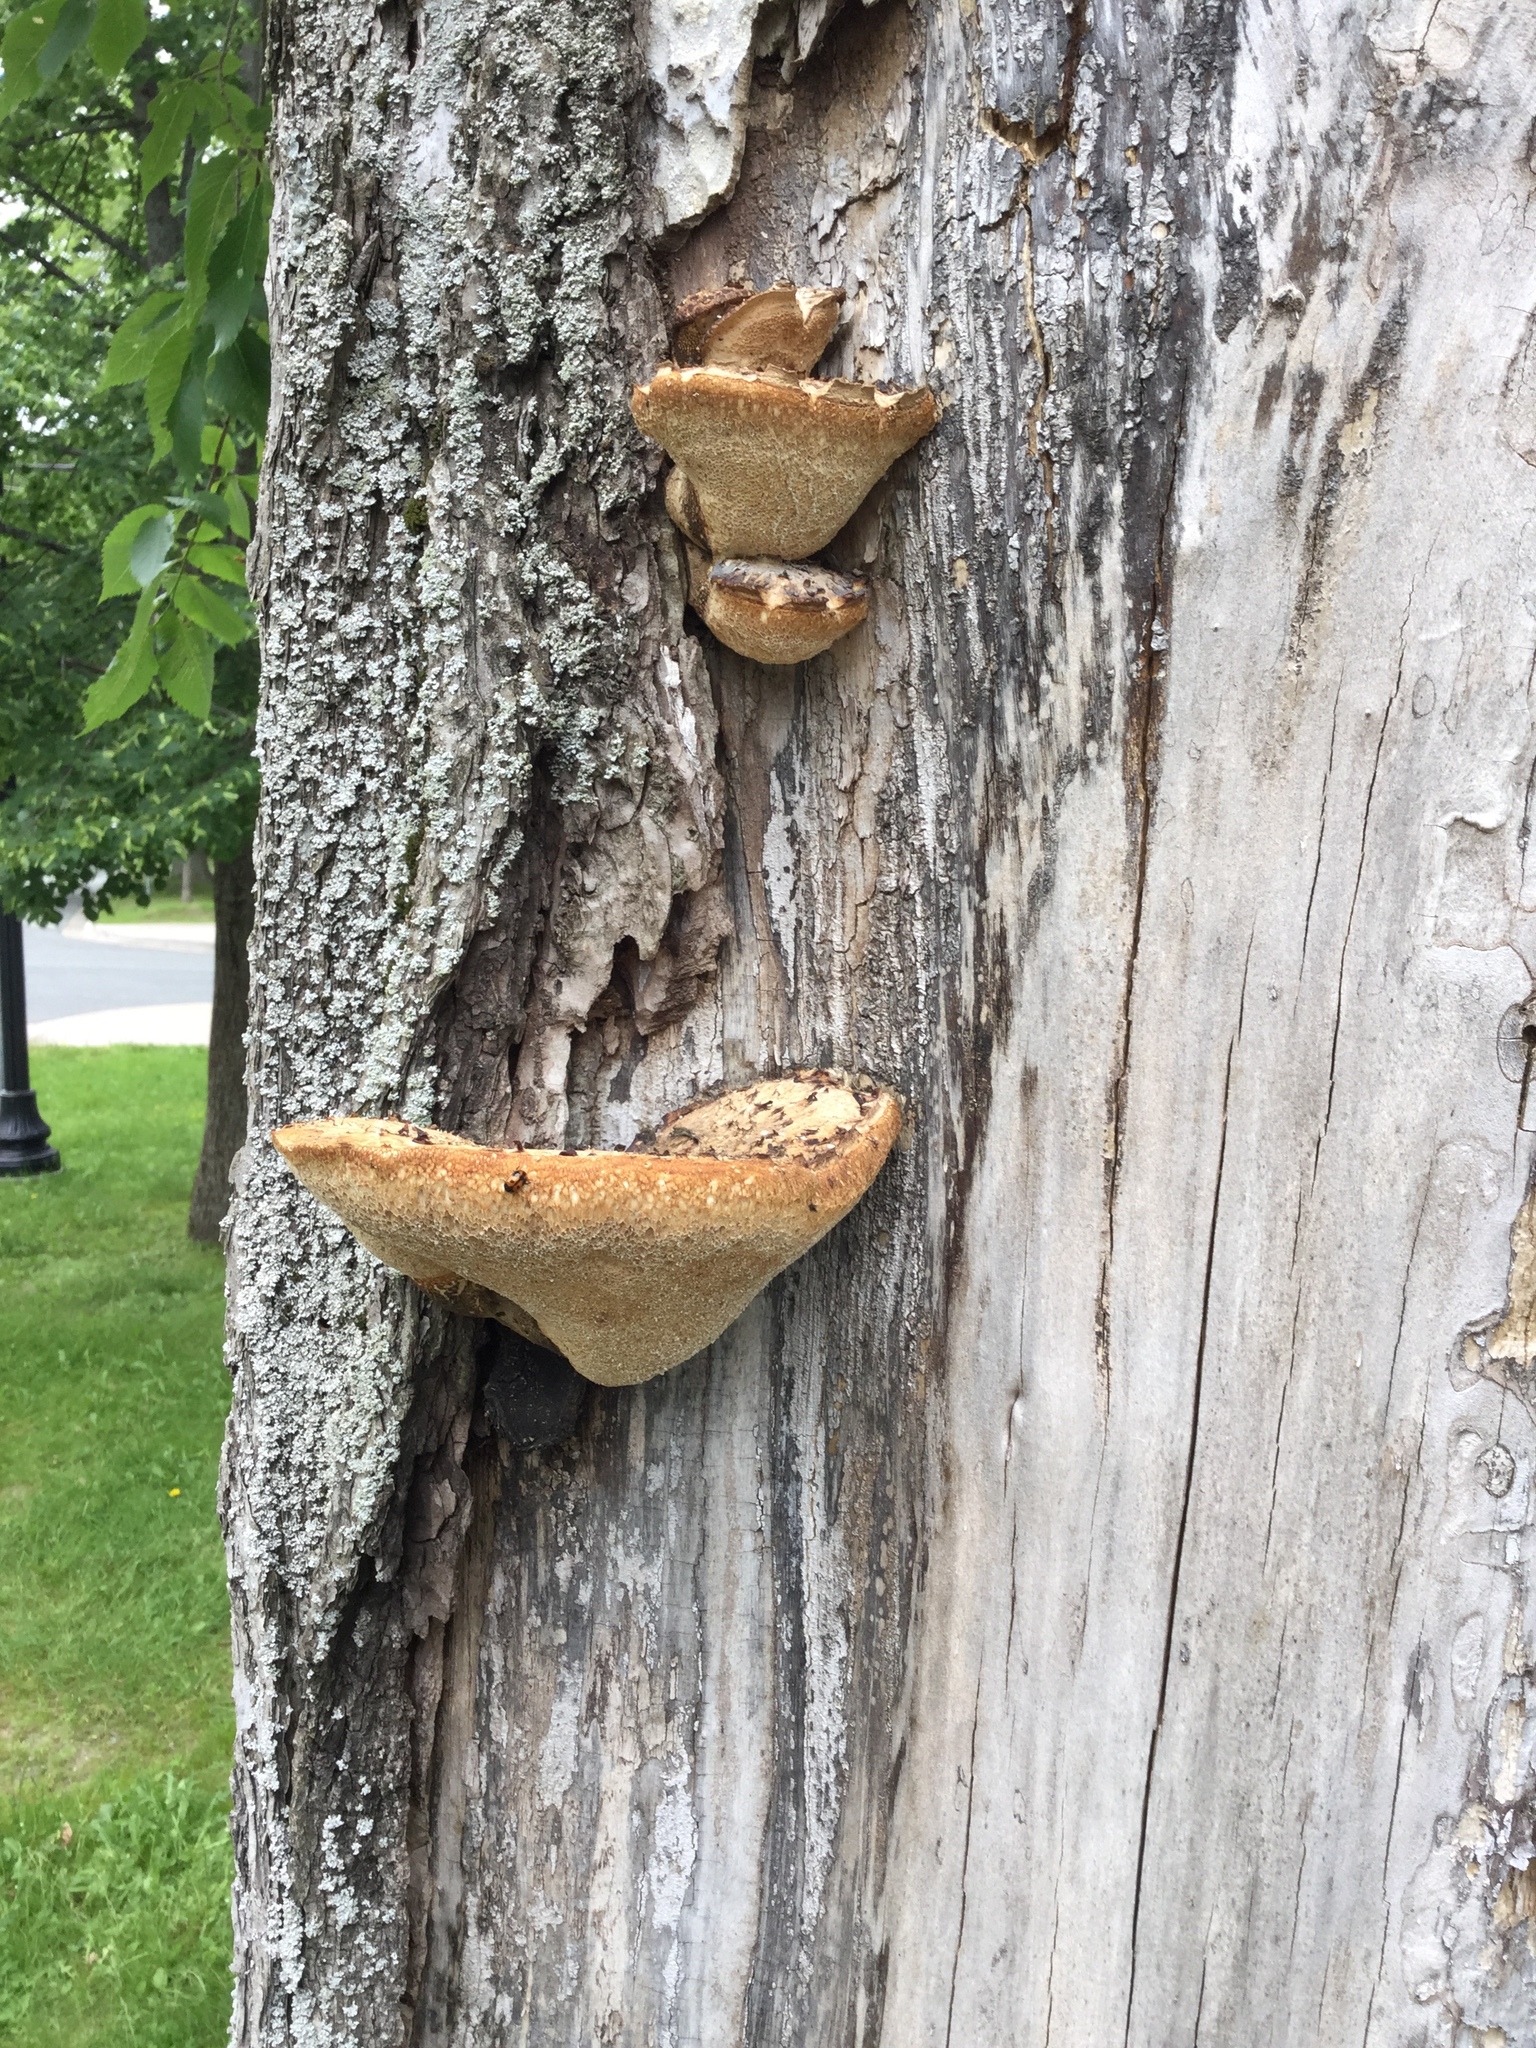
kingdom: Fungi
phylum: Basidiomycota
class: Agaricomycetes
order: Polyporales
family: Polyporaceae
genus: Cerioporus
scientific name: Cerioporus squamosus
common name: Dryad's saddle
